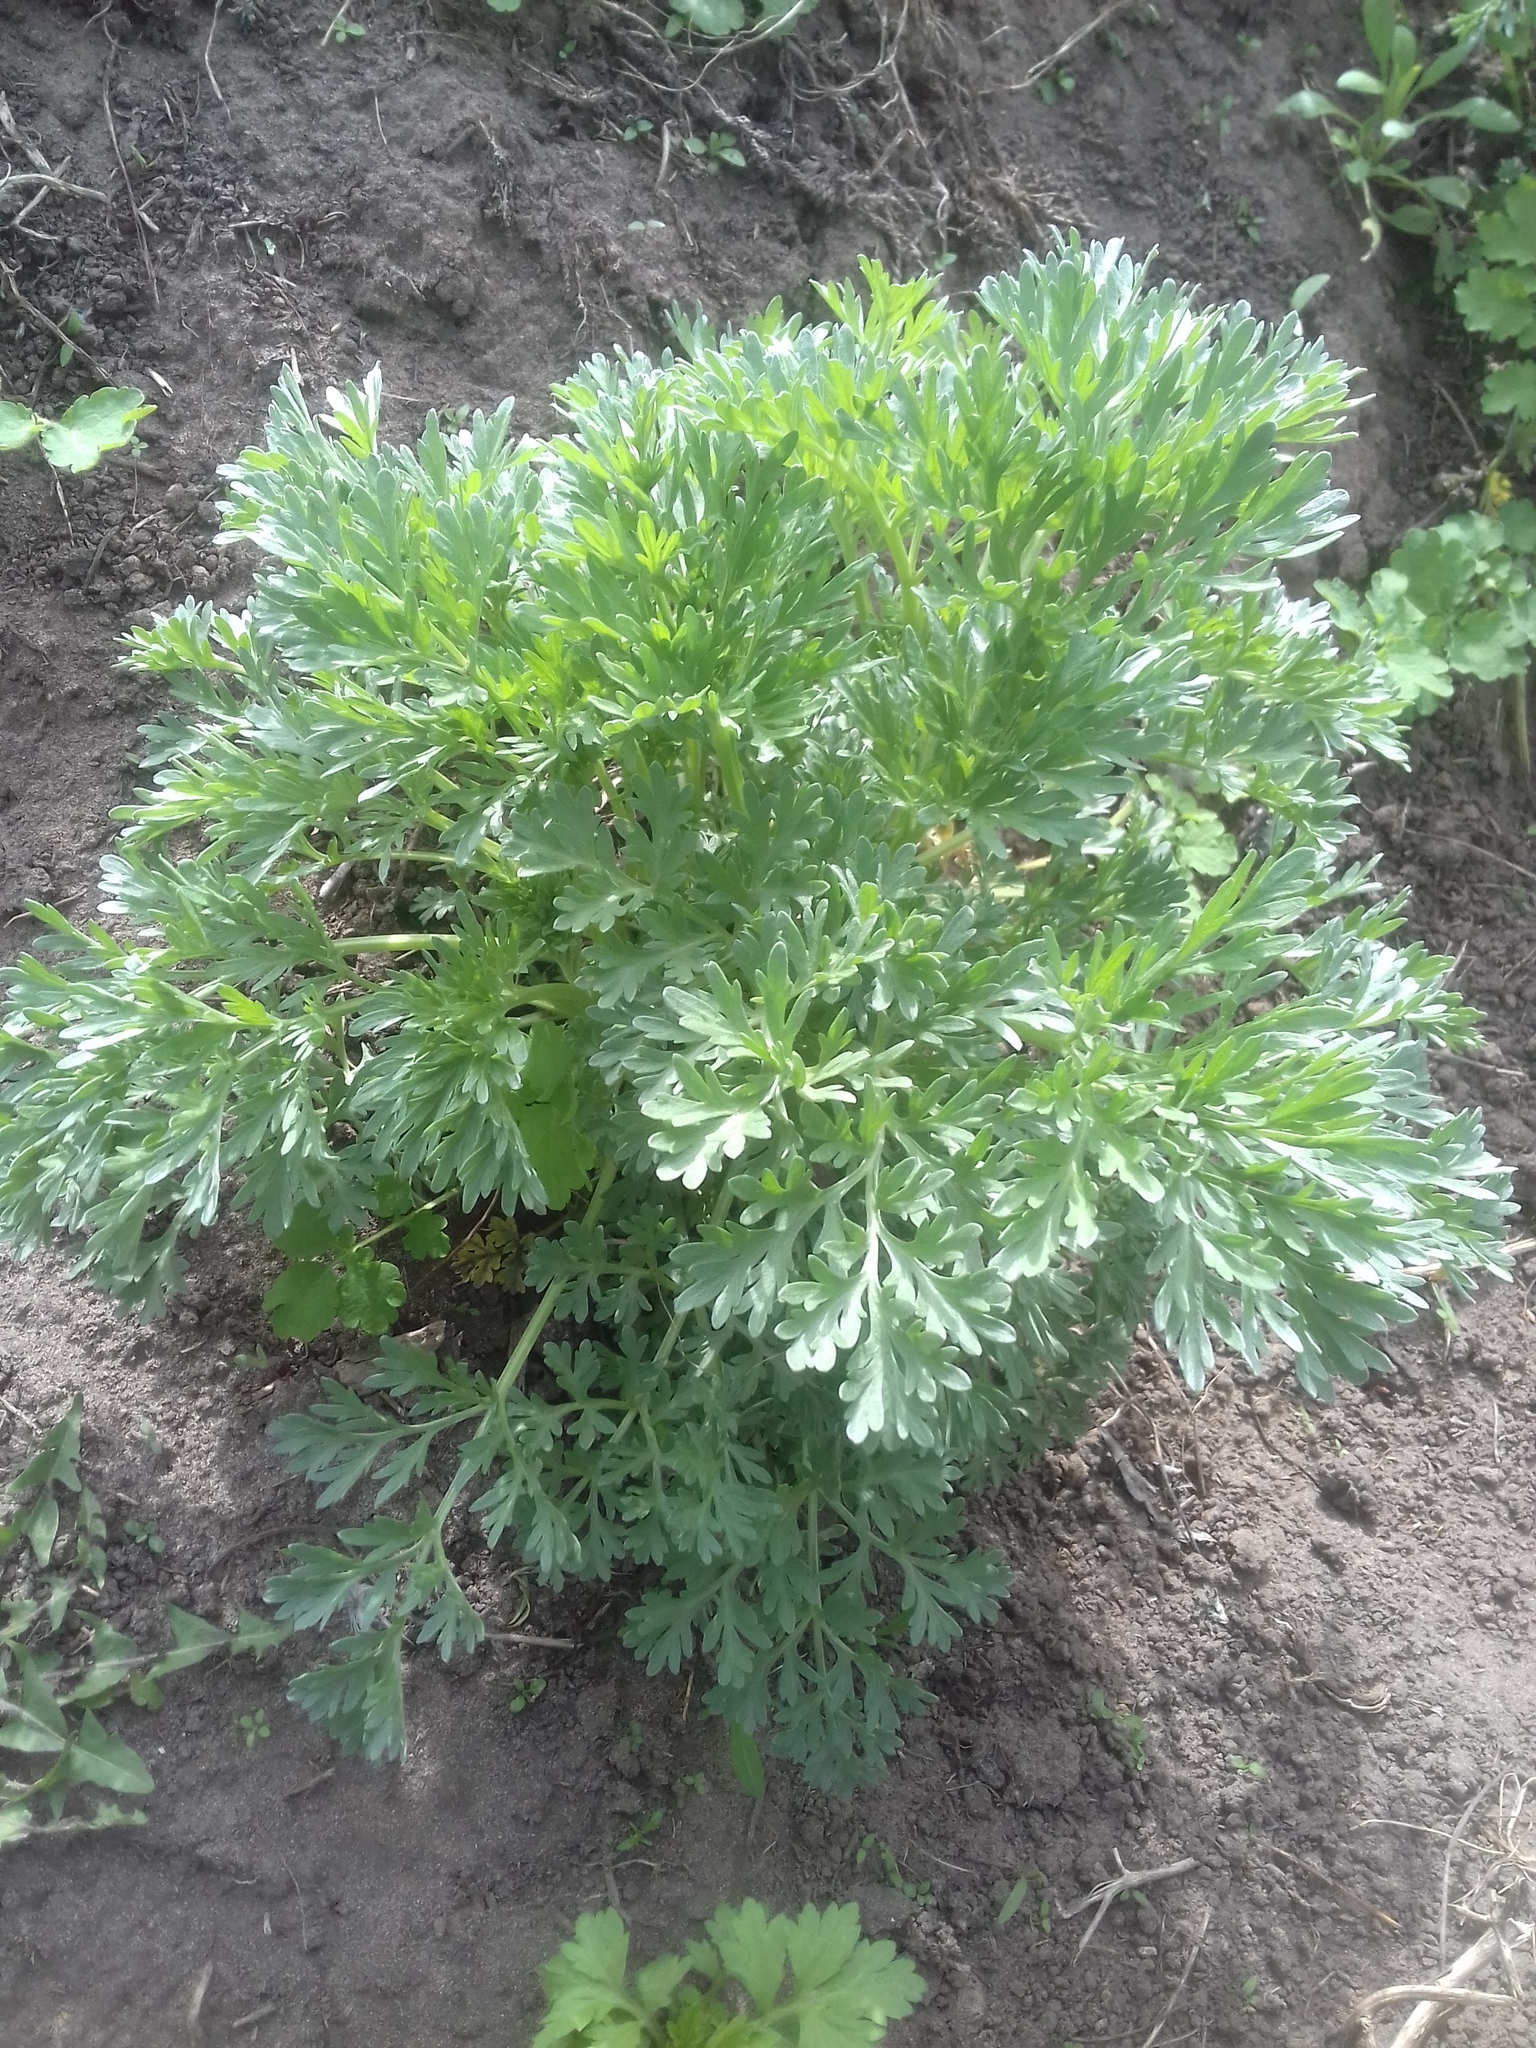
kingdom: Plantae
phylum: Tracheophyta
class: Magnoliopsida
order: Asterales
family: Asteraceae
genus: Artemisia
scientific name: Artemisia absinthium
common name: Wormwood
